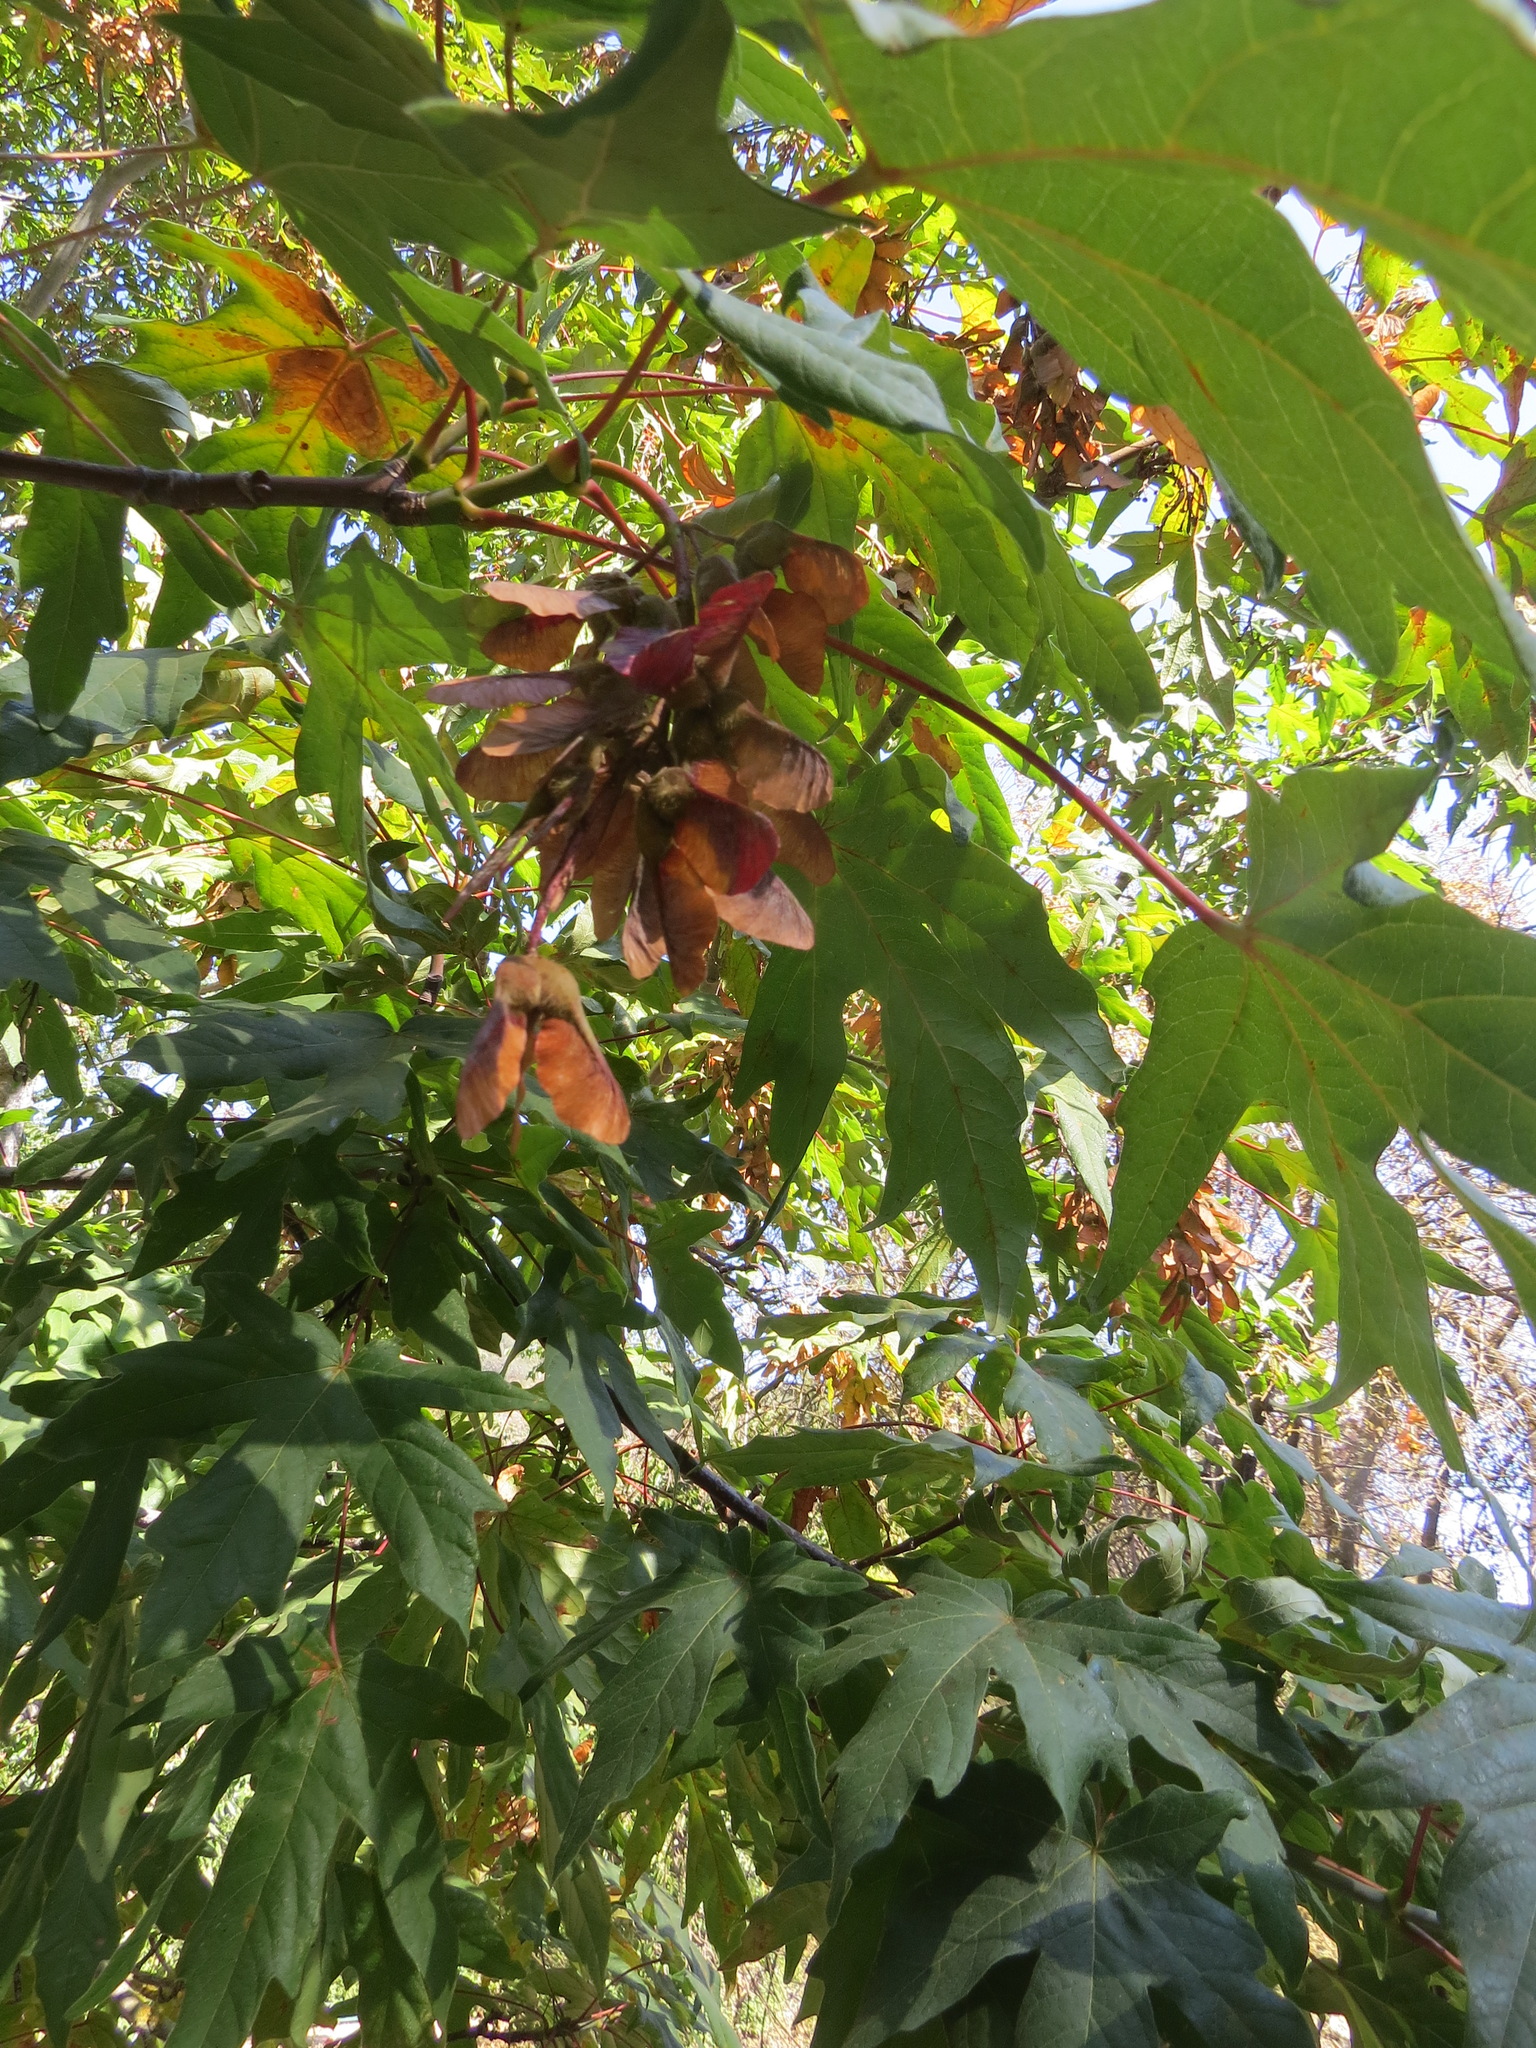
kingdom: Plantae
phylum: Tracheophyta
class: Magnoliopsida
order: Sapindales
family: Sapindaceae
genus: Acer
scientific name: Acer macrophyllum
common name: Oregon maple
